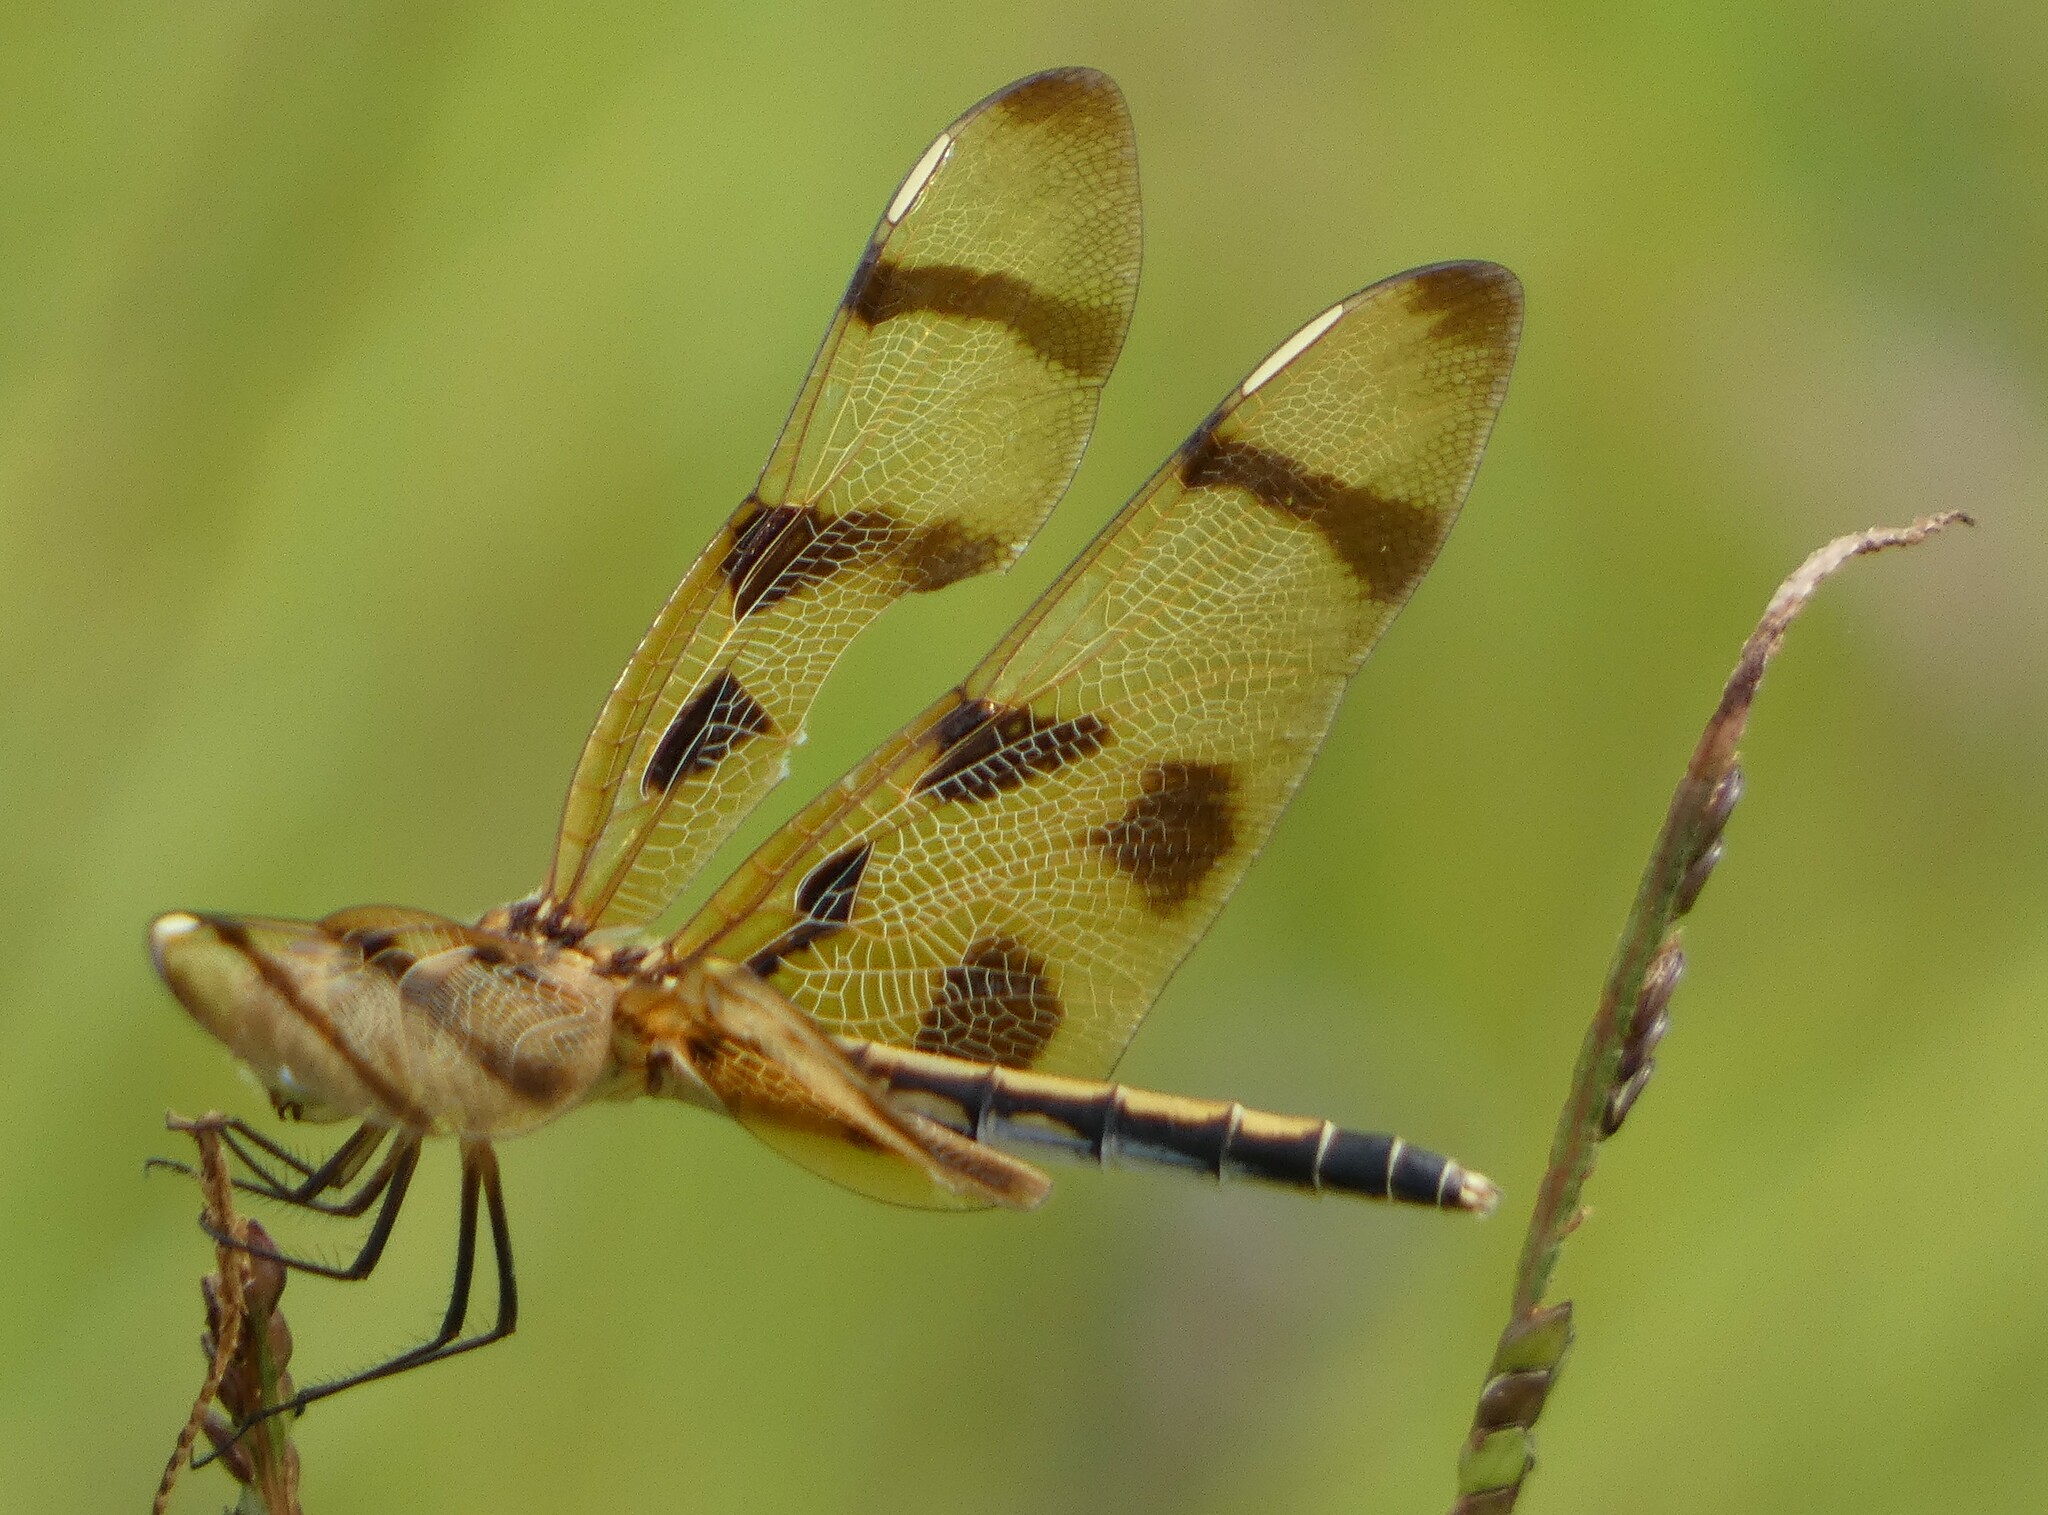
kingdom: Animalia
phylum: Arthropoda
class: Insecta
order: Odonata
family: Libellulidae
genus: Celithemis
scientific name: Celithemis eponina
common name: Halloween pennant
